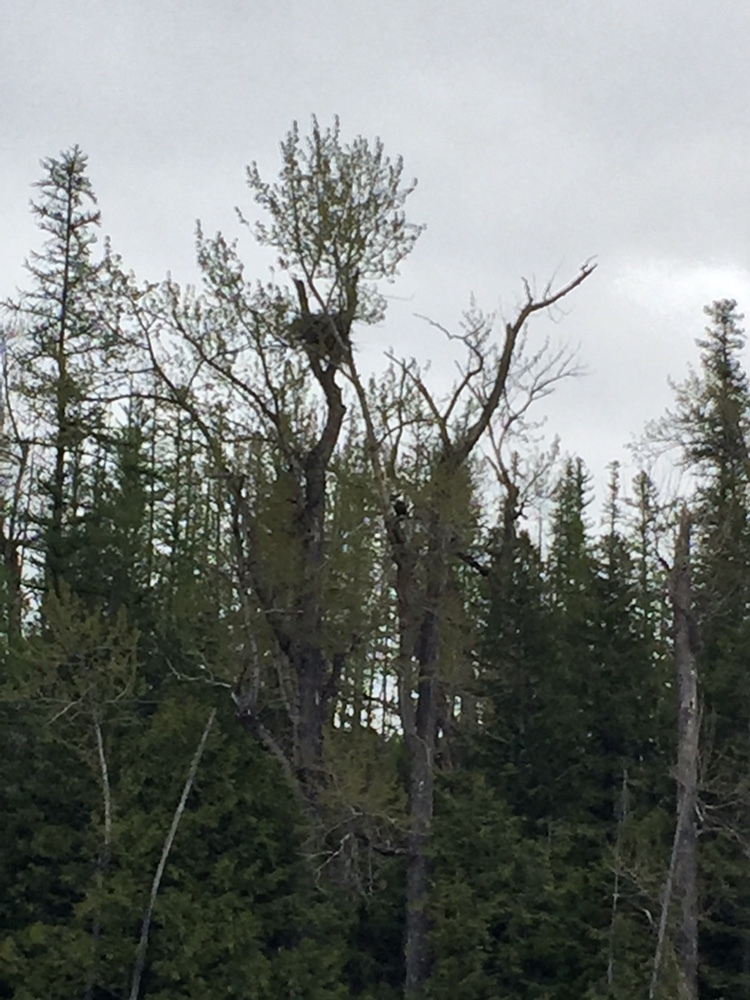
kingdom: Animalia
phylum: Chordata
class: Aves
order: Accipitriformes
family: Accipitridae
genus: Haliaeetus
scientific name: Haliaeetus leucocephalus
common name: Bald eagle
